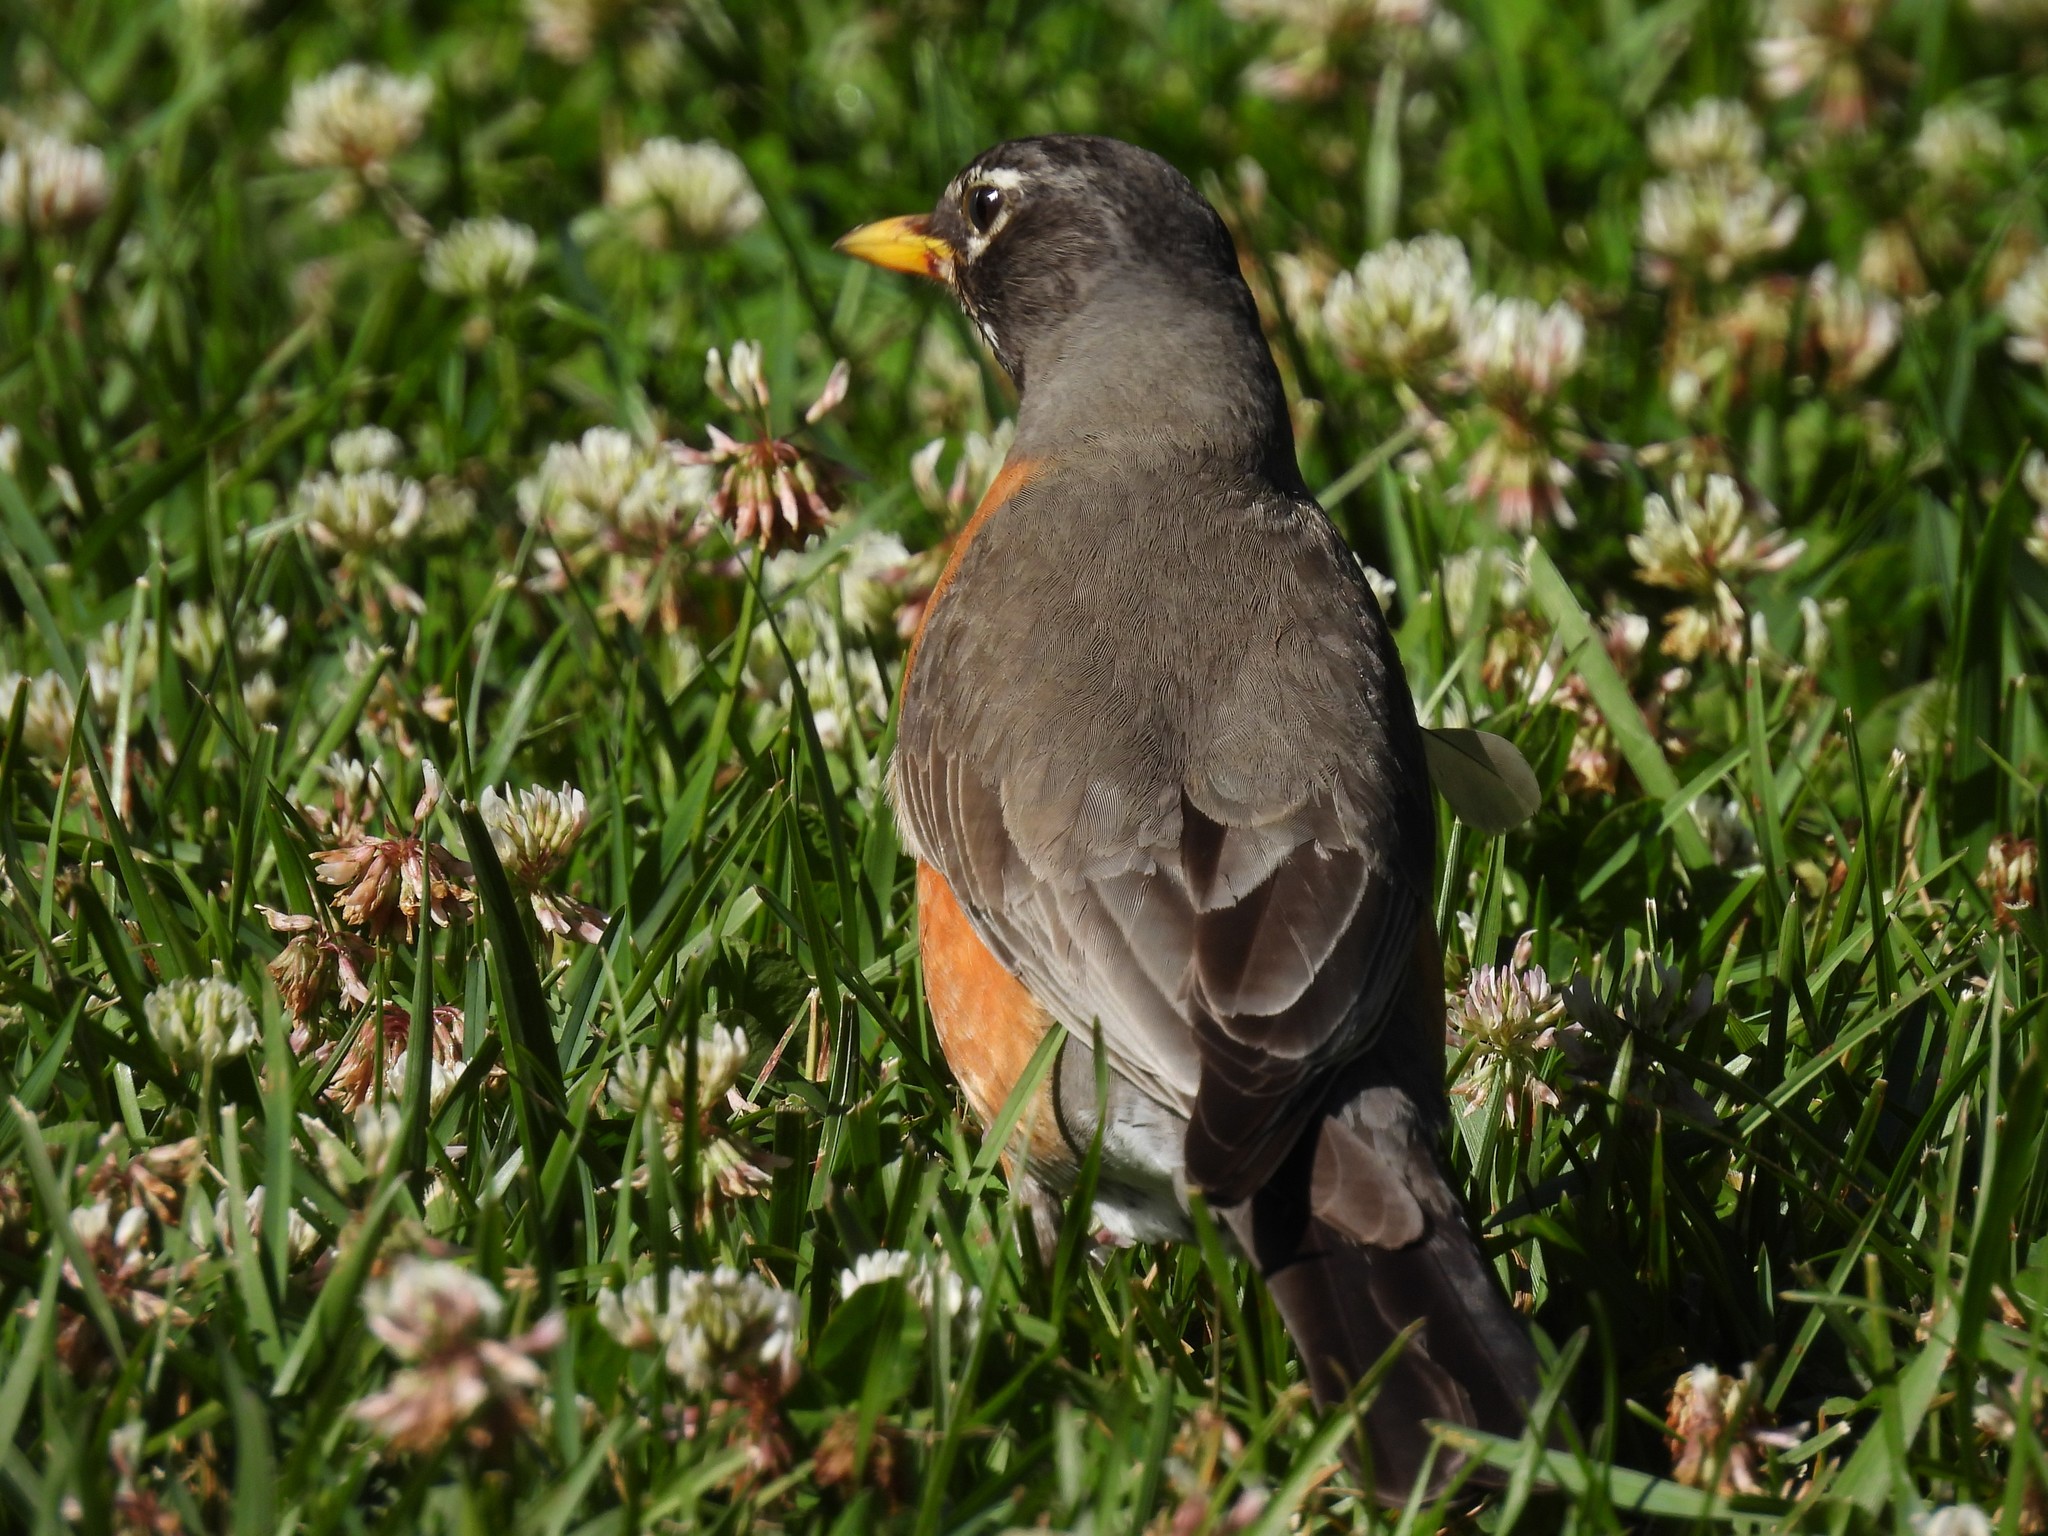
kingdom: Animalia
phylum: Chordata
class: Aves
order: Passeriformes
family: Turdidae
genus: Turdus
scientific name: Turdus migratorius
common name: American robin
